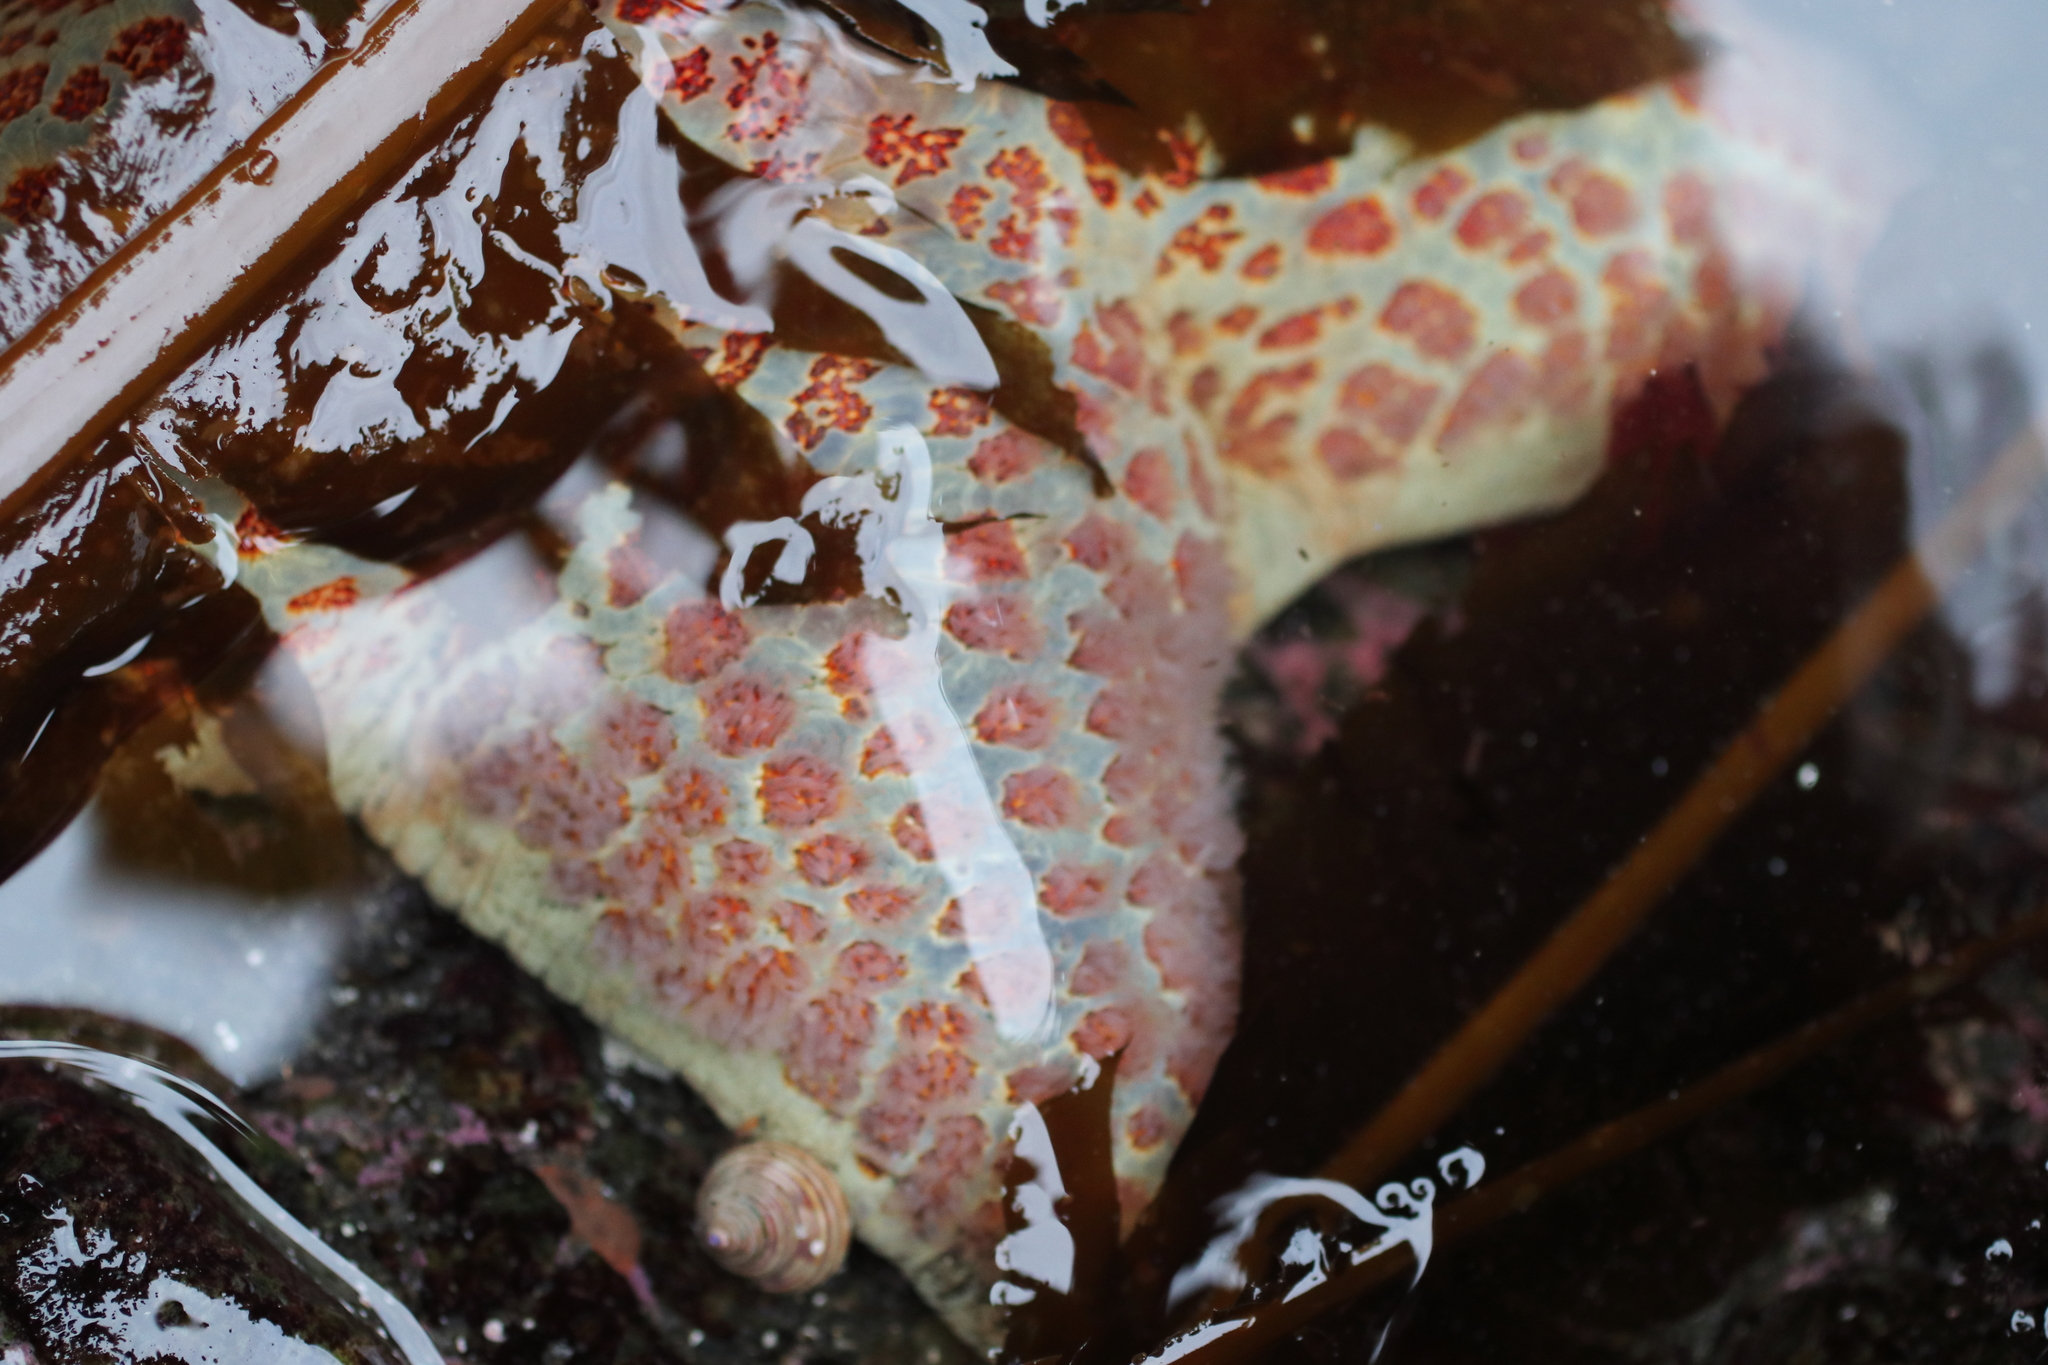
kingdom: Animalia
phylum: Echinodermata
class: Asteroidea
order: Valvatida
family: Asteropseidae
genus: Dermasterias
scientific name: Dermasterias imbricata
